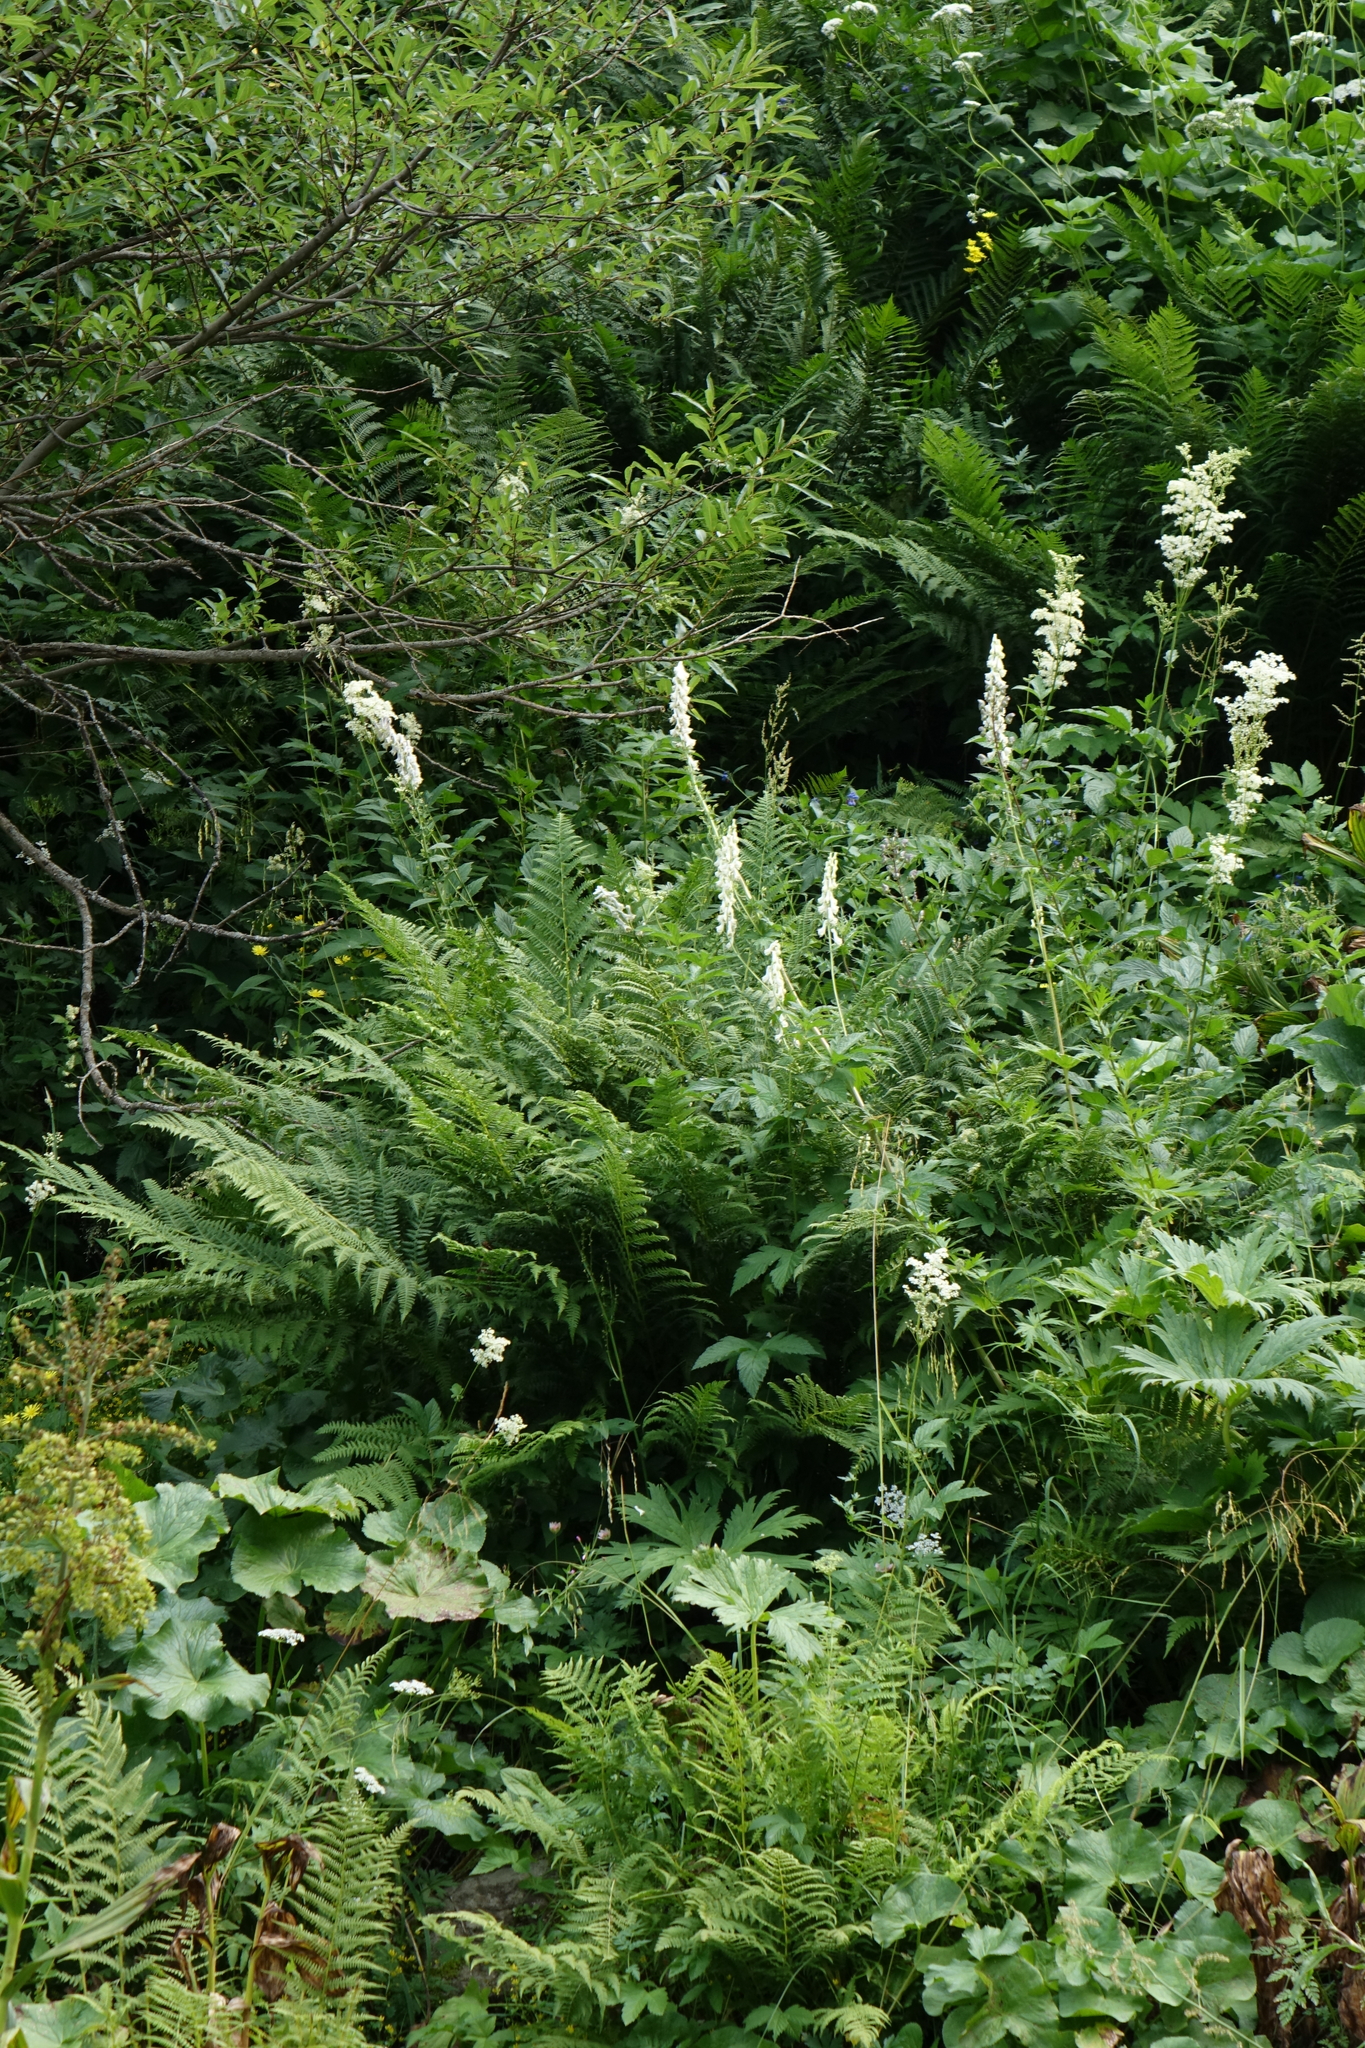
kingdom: Plantae
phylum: Tracheophyta
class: Magnoliopsida
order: Rosales
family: Rosaceae
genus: Filipendula
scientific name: Filipendula ulmaria
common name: Meadowsweet
